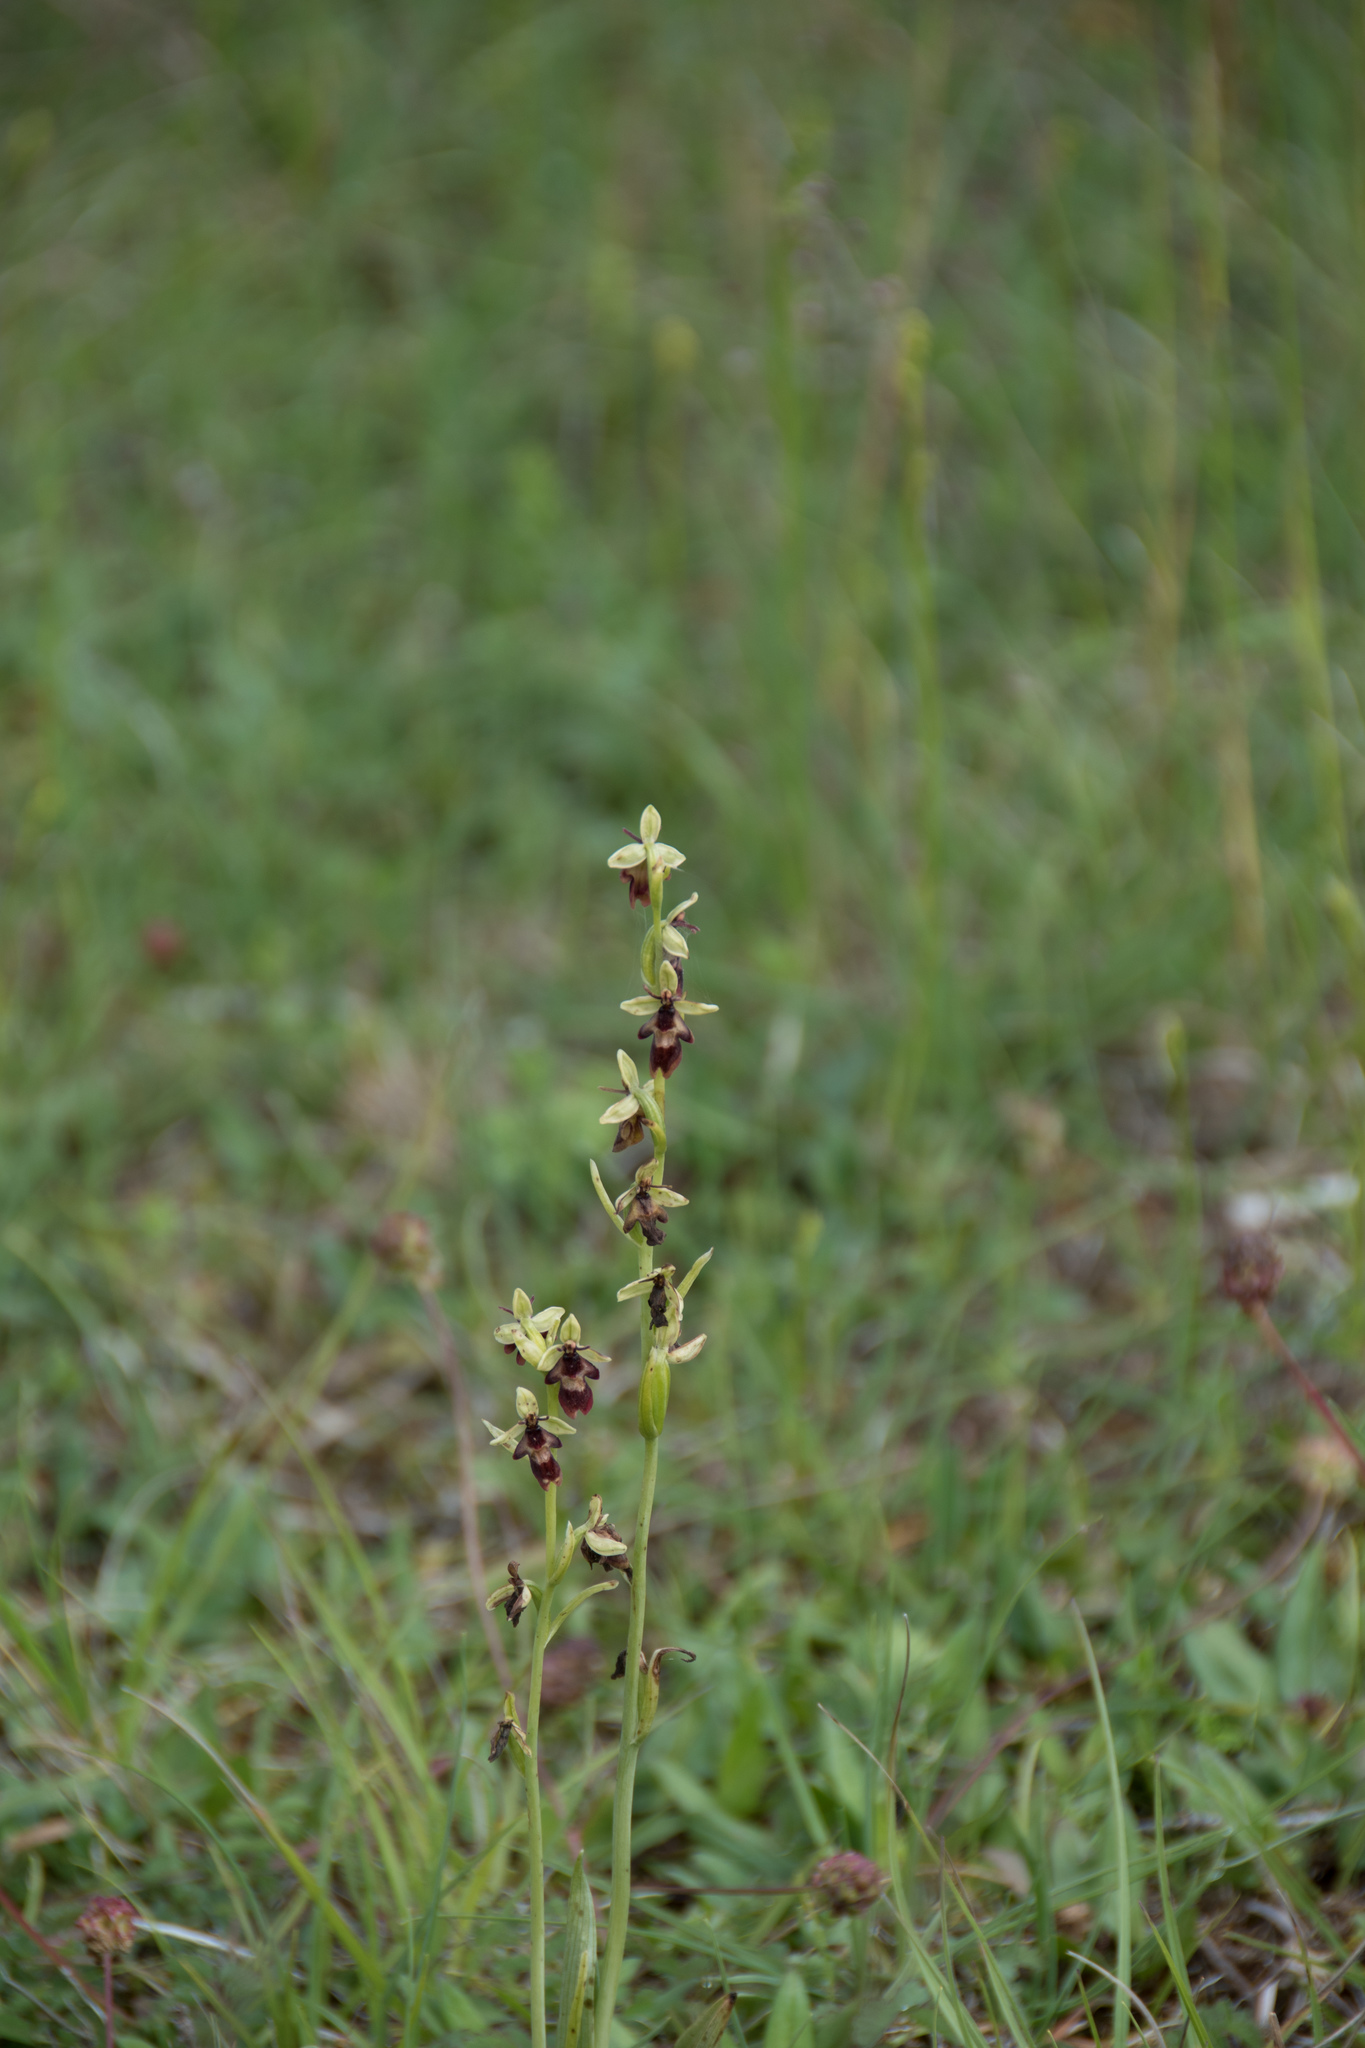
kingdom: Plantae
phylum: Tracheophyta
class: Liliopsida
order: Asparagales
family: Orchidaceae
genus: Ophrys
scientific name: Ophrys insectifera
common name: Fly orchid
